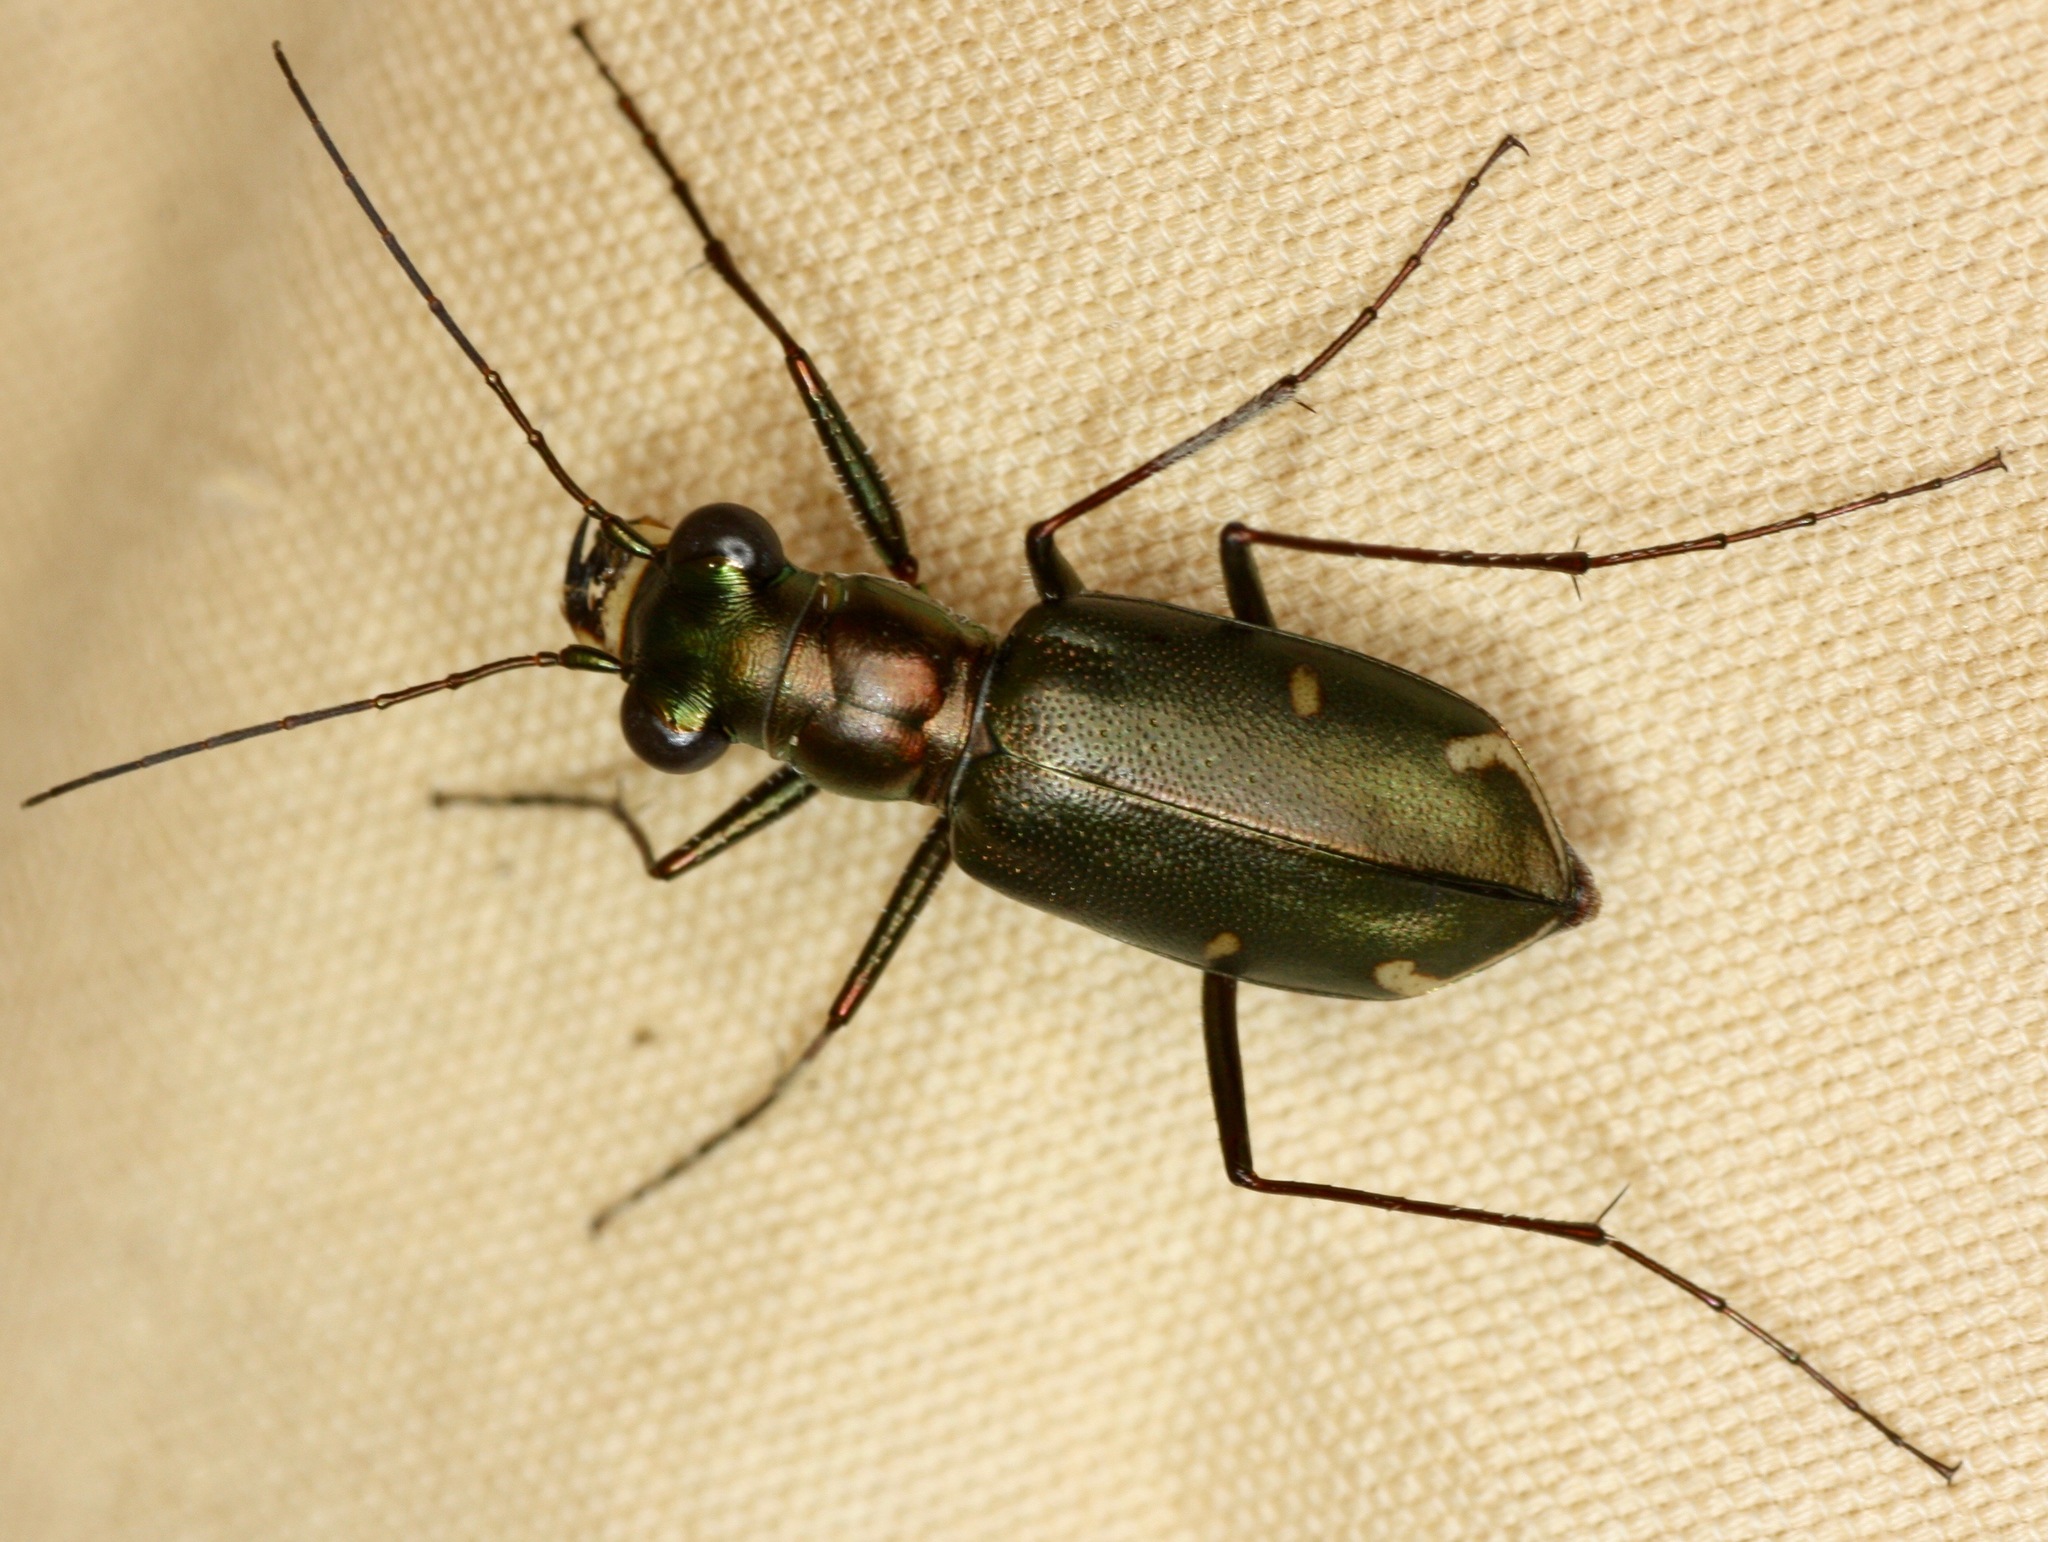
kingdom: Animalia
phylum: Arthropoda
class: Insecta
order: Coleoptera
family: Carabidae
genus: Eunota
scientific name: Eunota severa
